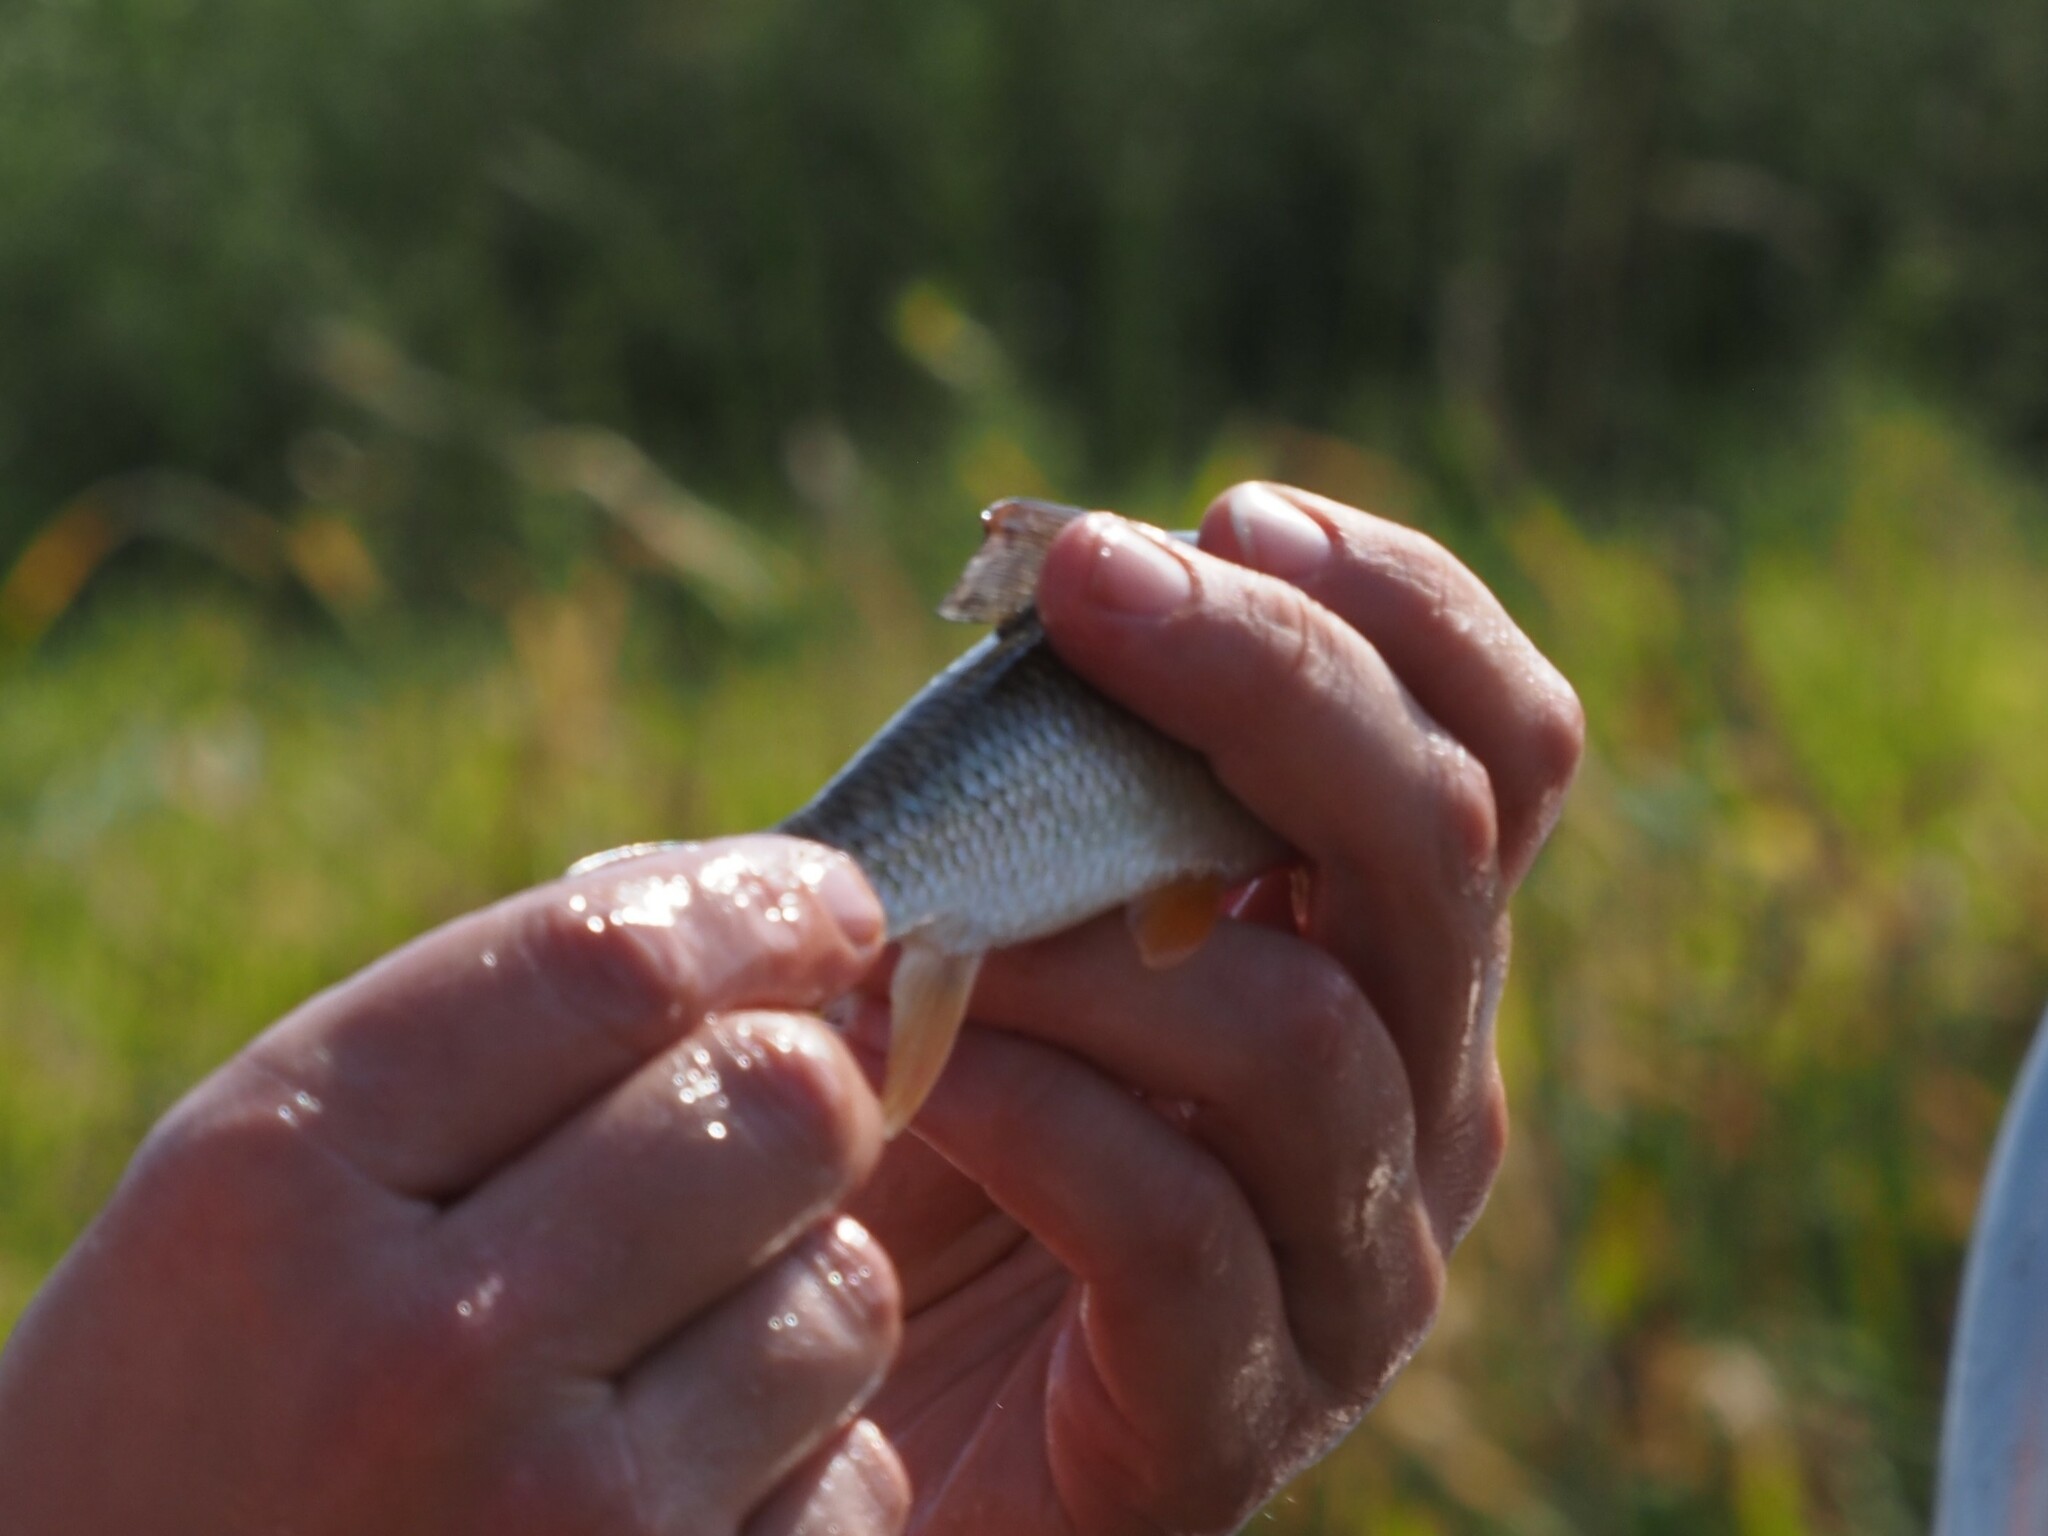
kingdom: Animalia
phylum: Chordata
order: Cypriniformes
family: Catostomidae
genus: Moxostoma
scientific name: Moxostoma macrolepidotum
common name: Shorthead redhorse
